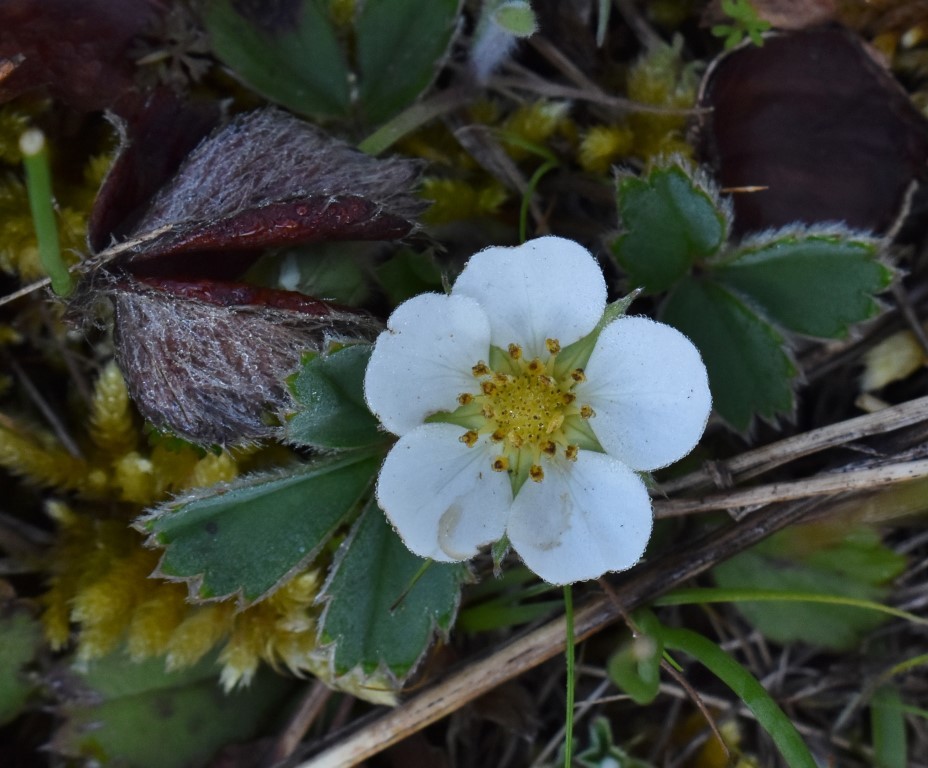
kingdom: Plantae
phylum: Tracheophyta
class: Magnoliopsida
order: Rosales
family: Rosaceae
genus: Fragaria
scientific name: Fragaria virginiana
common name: Thickleaved wild strawberry
